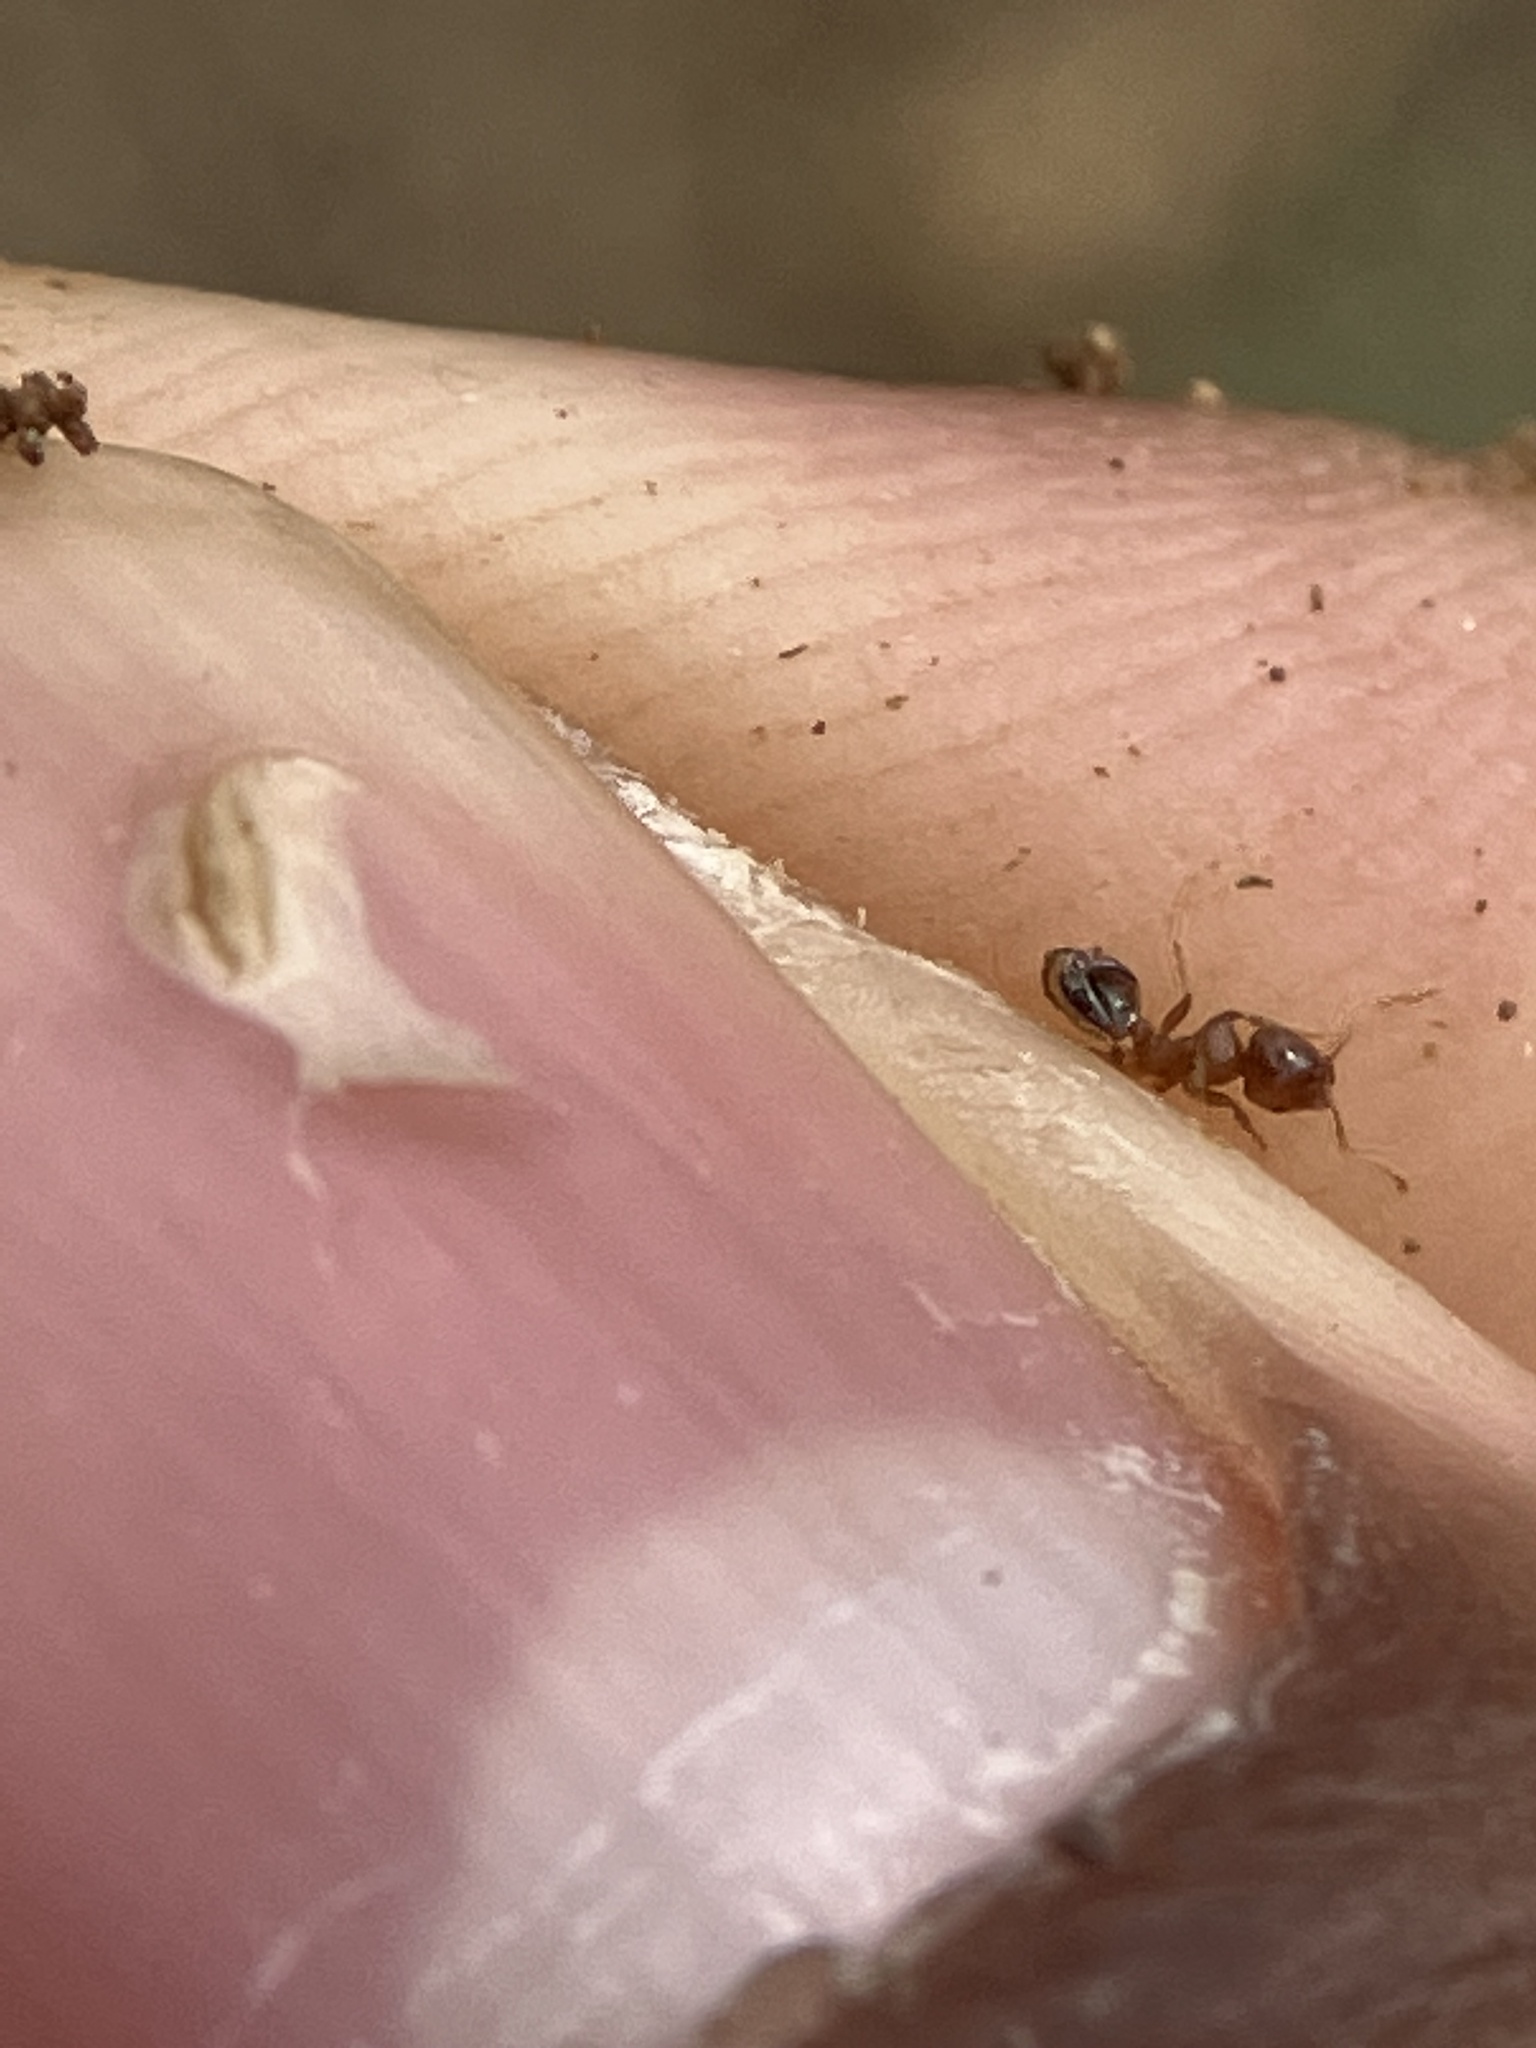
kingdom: Animalia
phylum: Arthropoda
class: Insecta
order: Hymenoptera
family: Formicidae
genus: Lophomyrmex
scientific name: Lophomyrmex quadrispinosus
